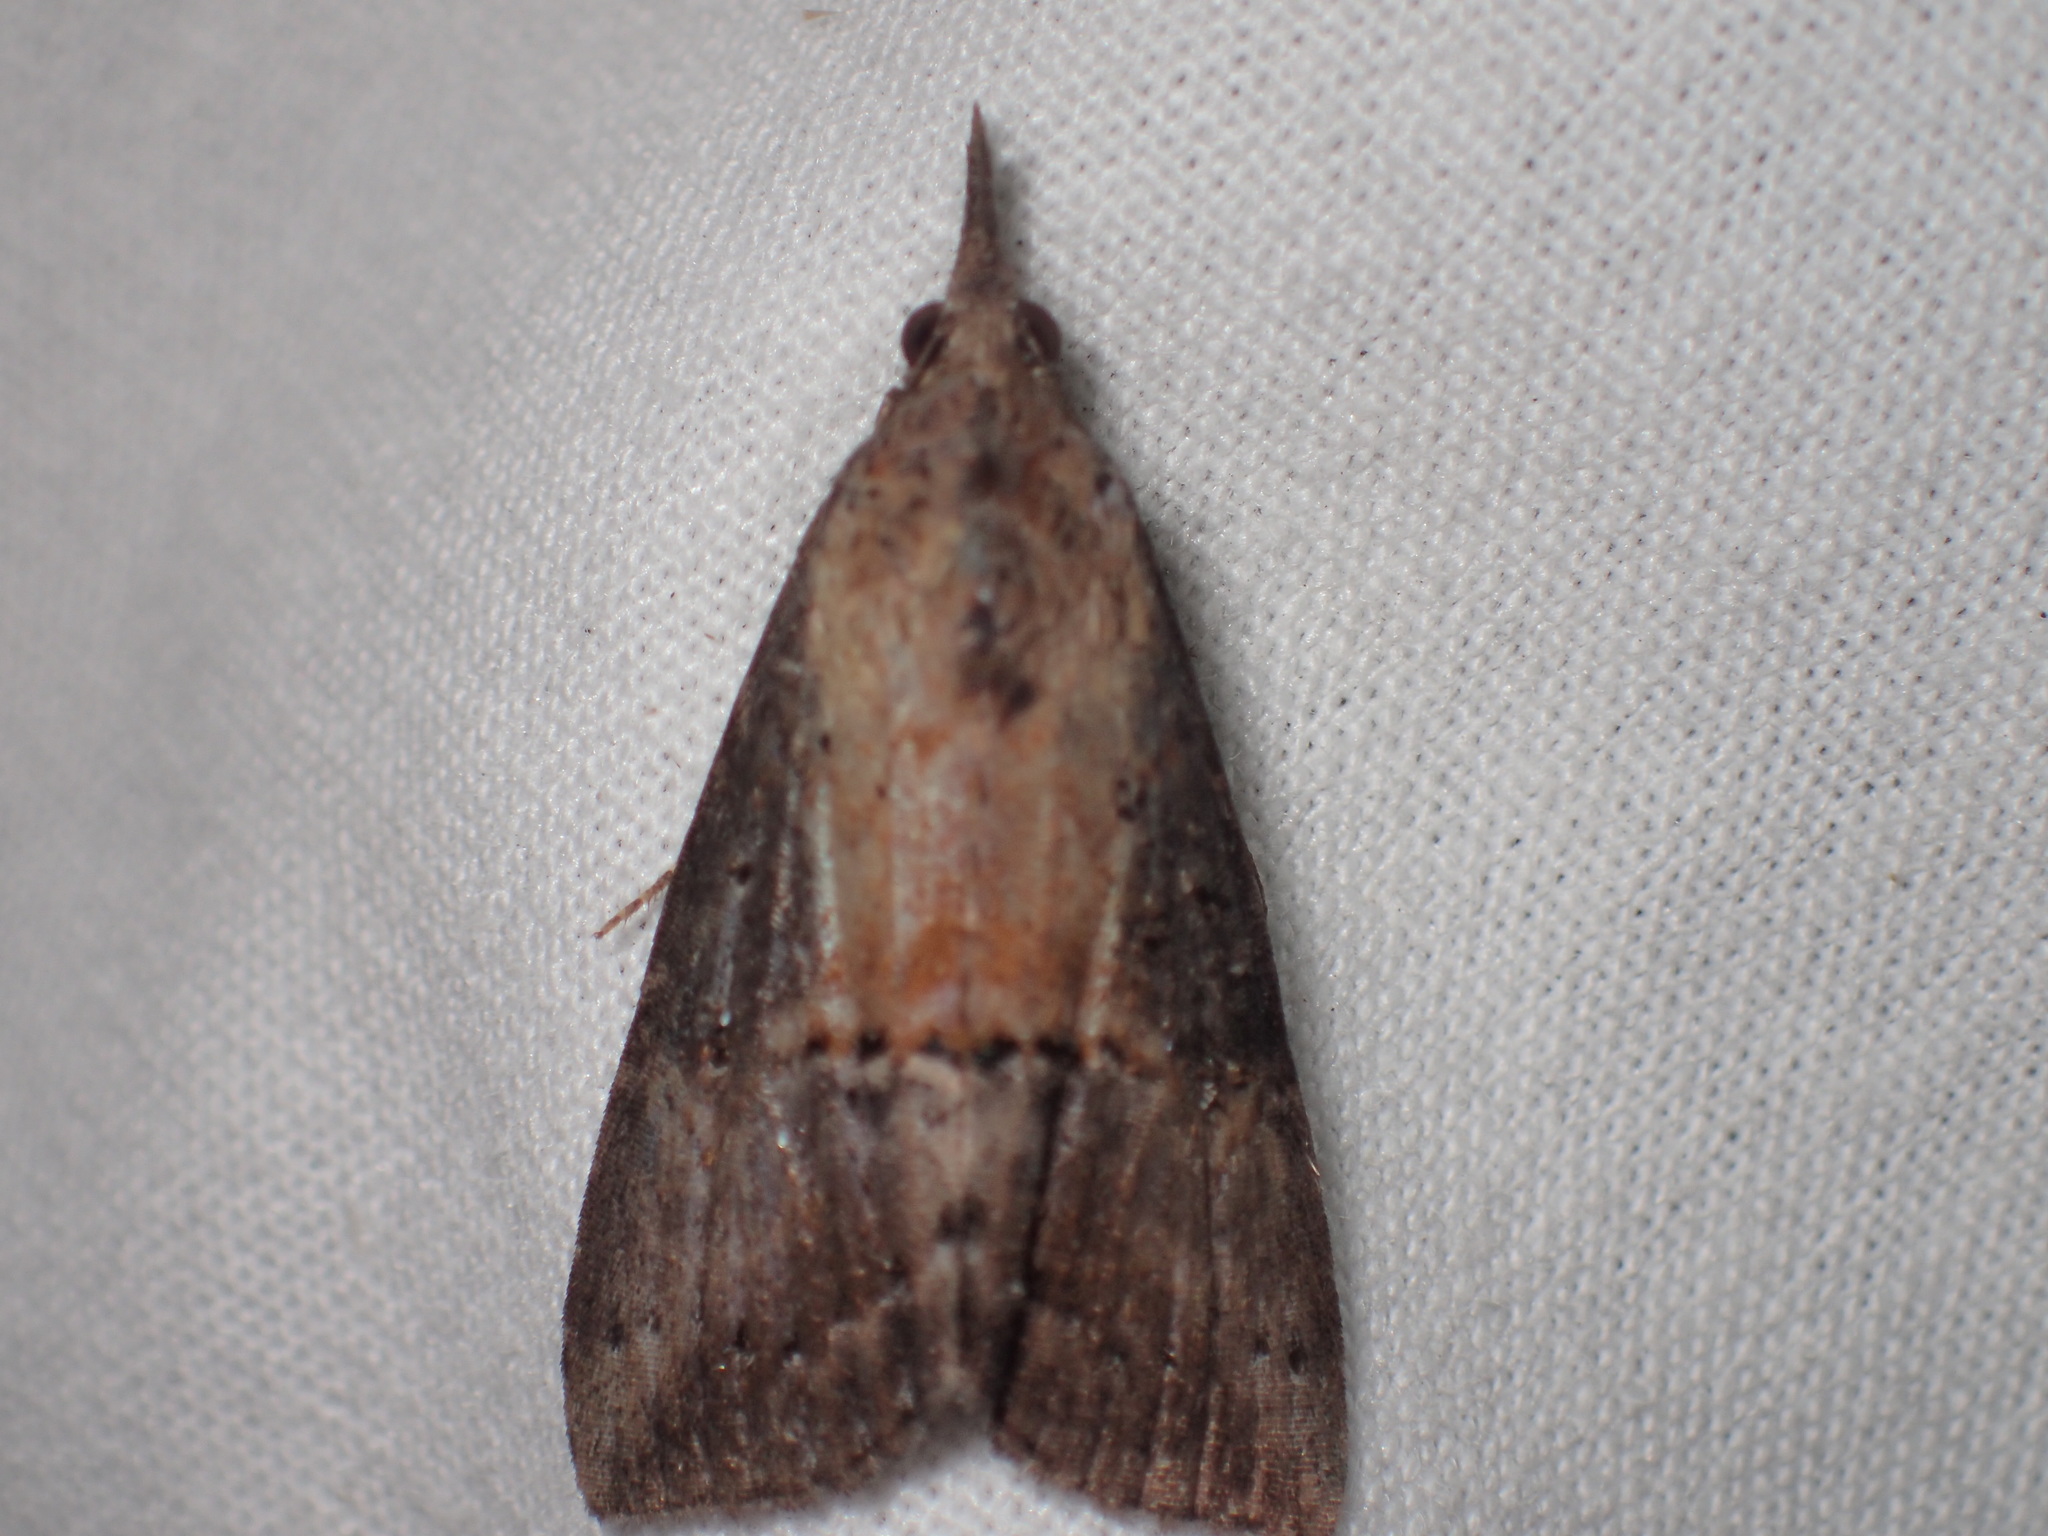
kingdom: Animalia
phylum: Arthropoda
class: Insecta
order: Lepidoptera
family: Erebidae
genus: Hypena
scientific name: Hypena scabra
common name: Green cloverworm
